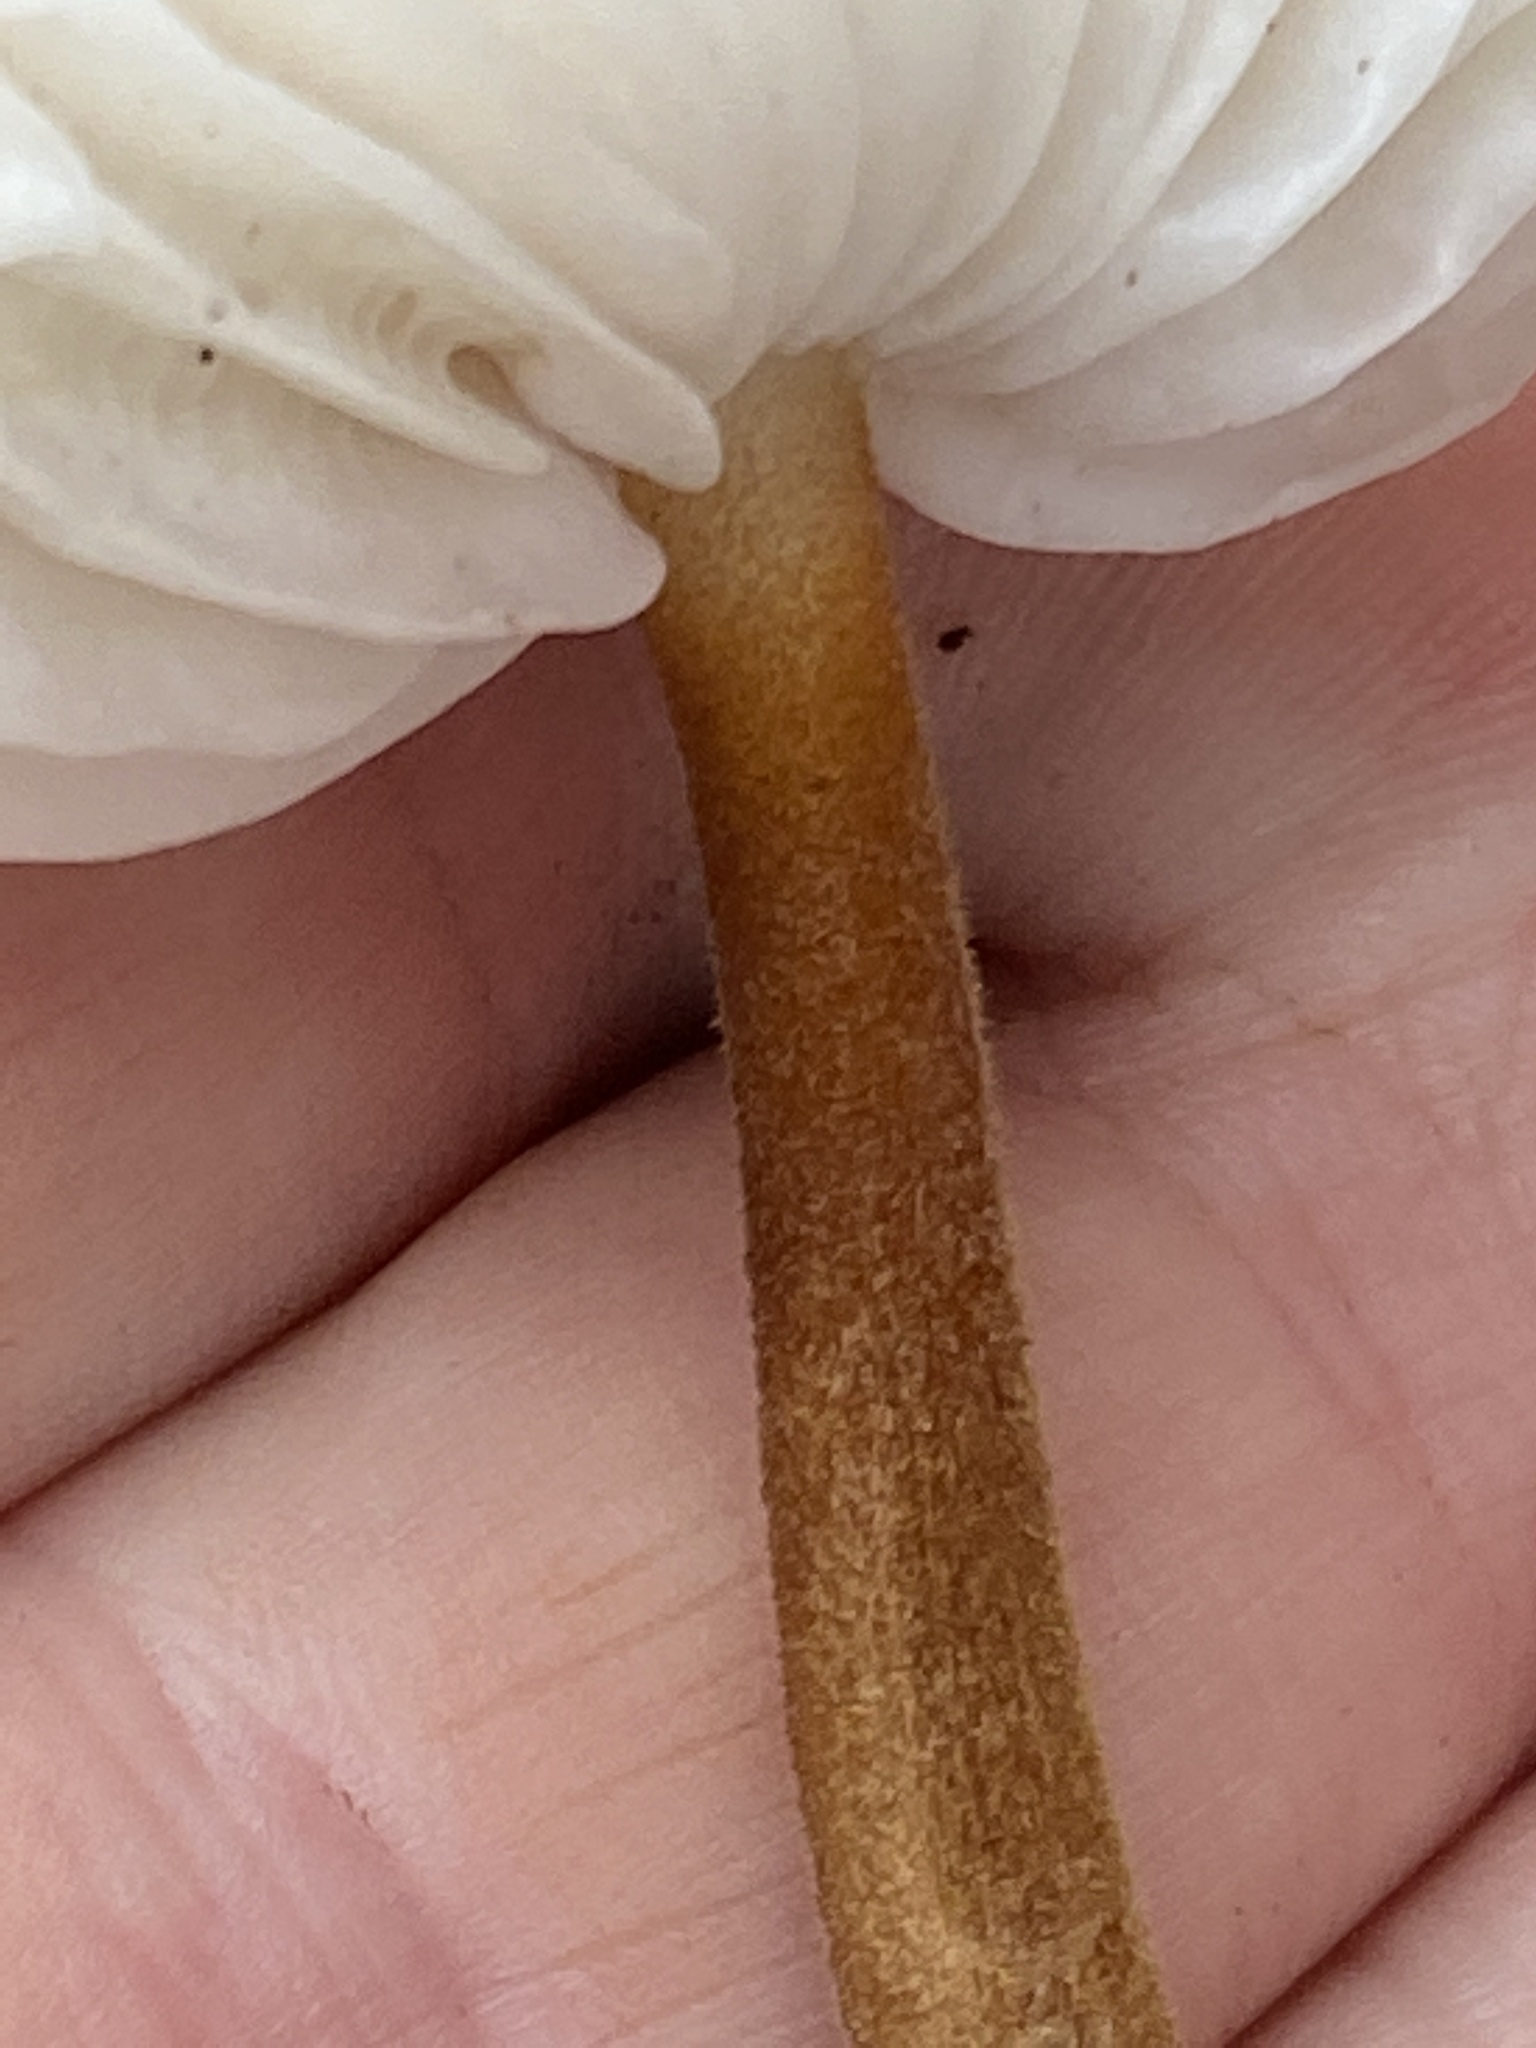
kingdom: Fungi
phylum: Basidiomycota
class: Agaricomycetes
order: Agaricales
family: Physalacriaceae
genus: Xerula
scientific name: Xerula pudens
